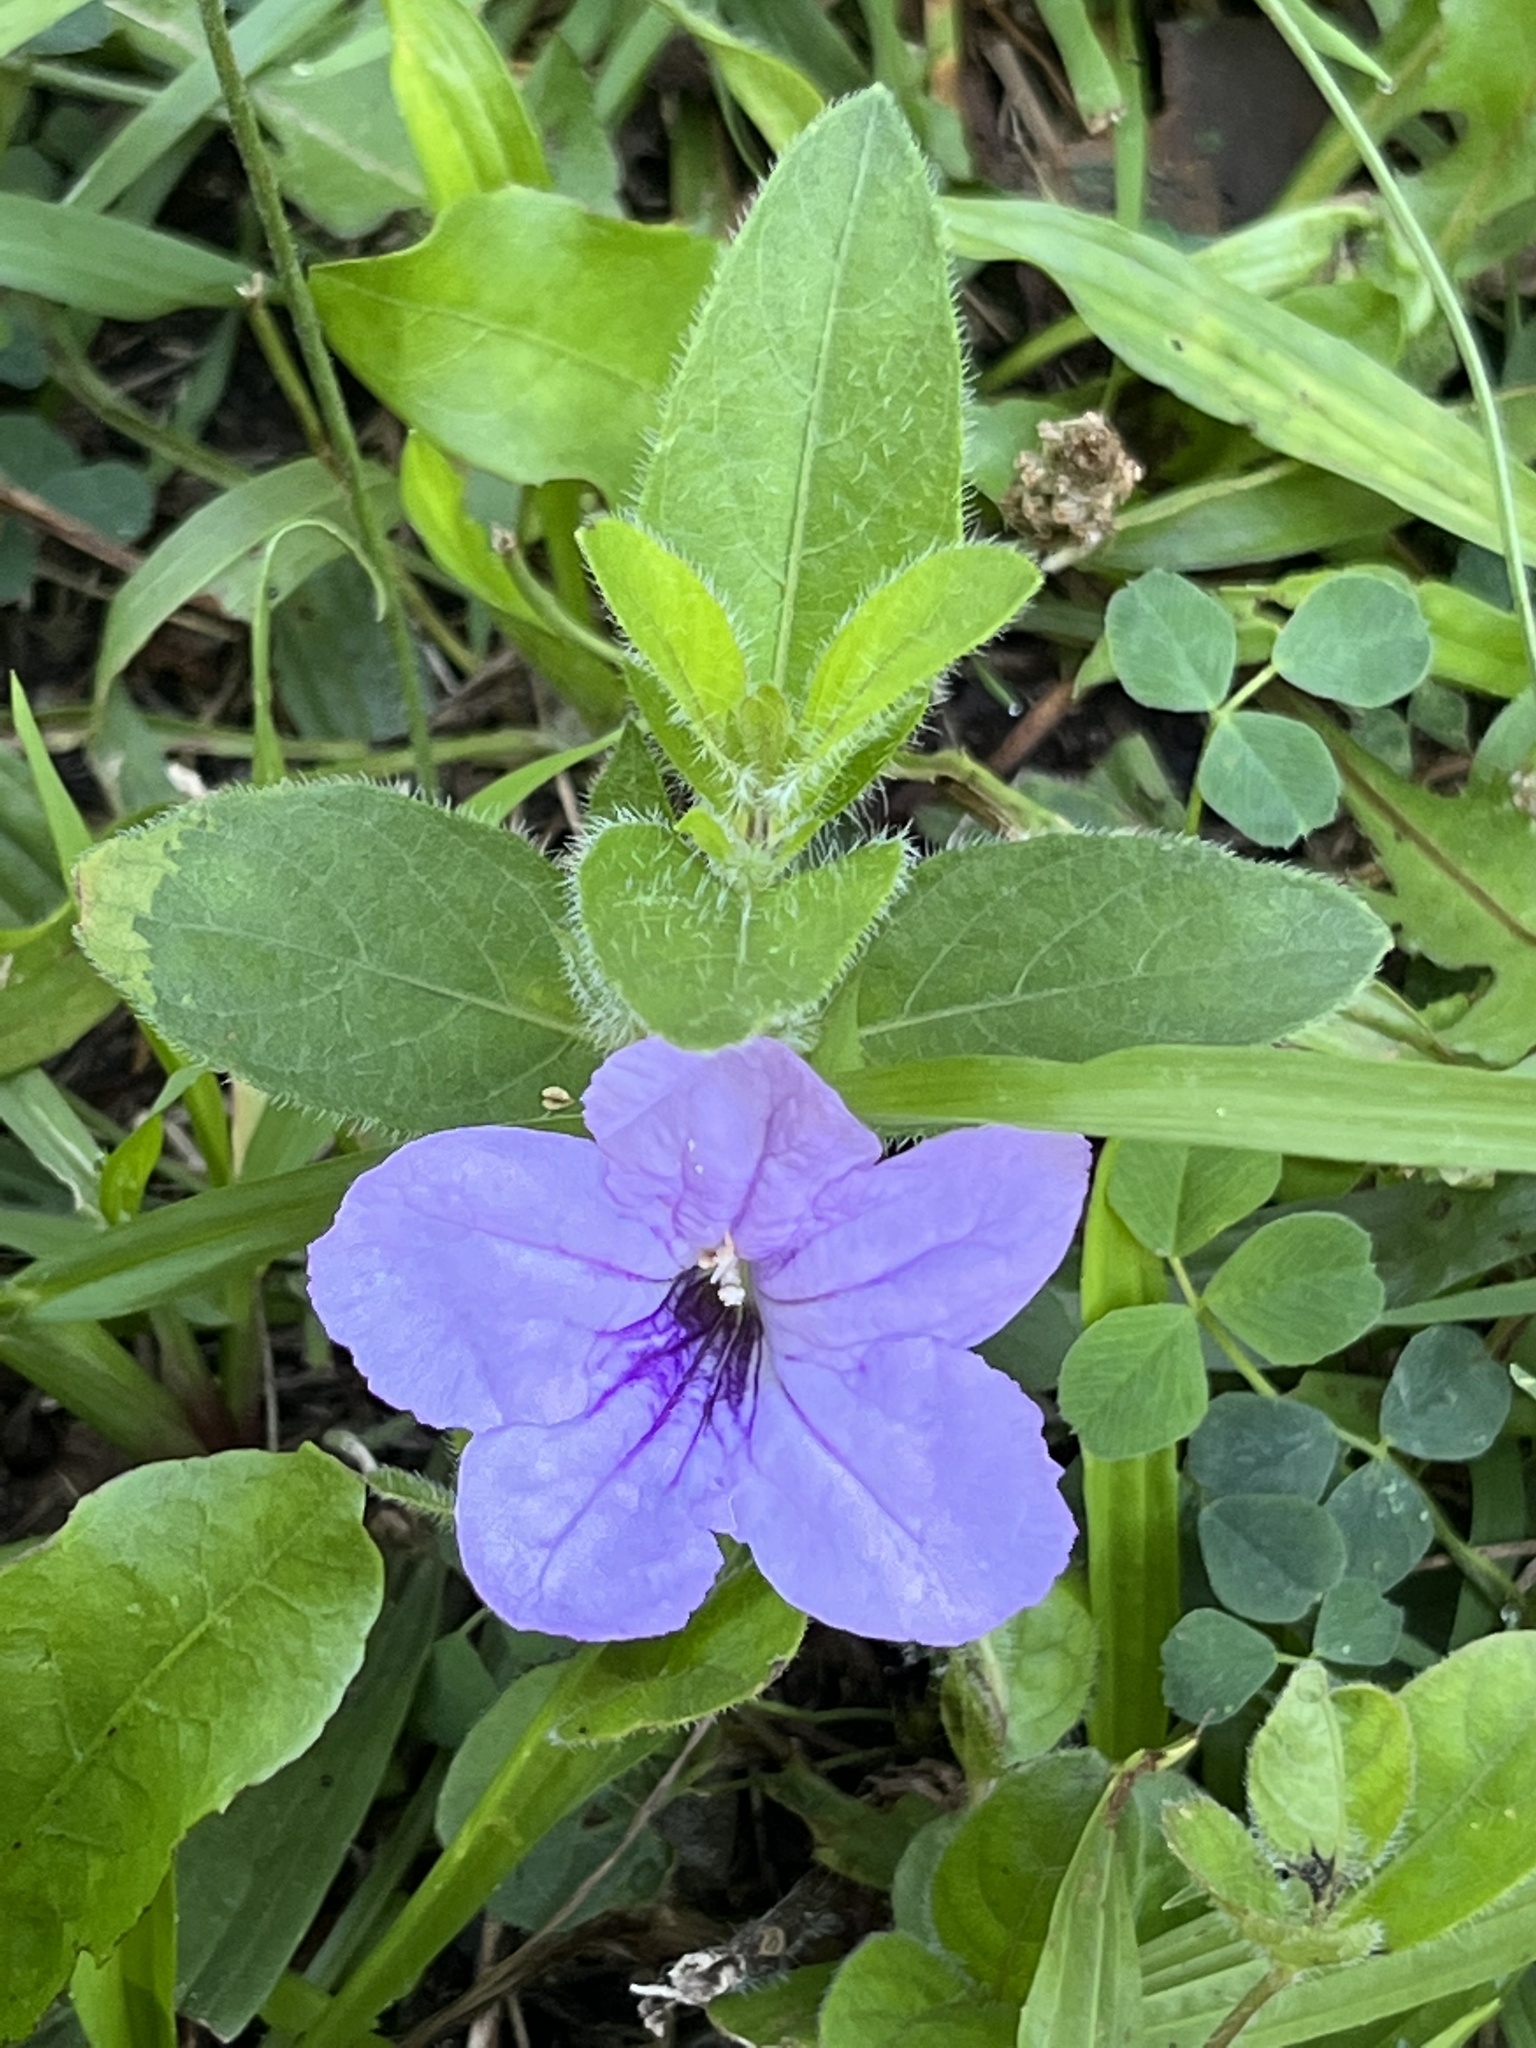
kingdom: Plantae
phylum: Tracheophyta
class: Magnoliopsida
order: Lamiales
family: Acanthaceae
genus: Ruellia
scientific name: Ruellia humilis
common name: Fringe-leaf ruellia
